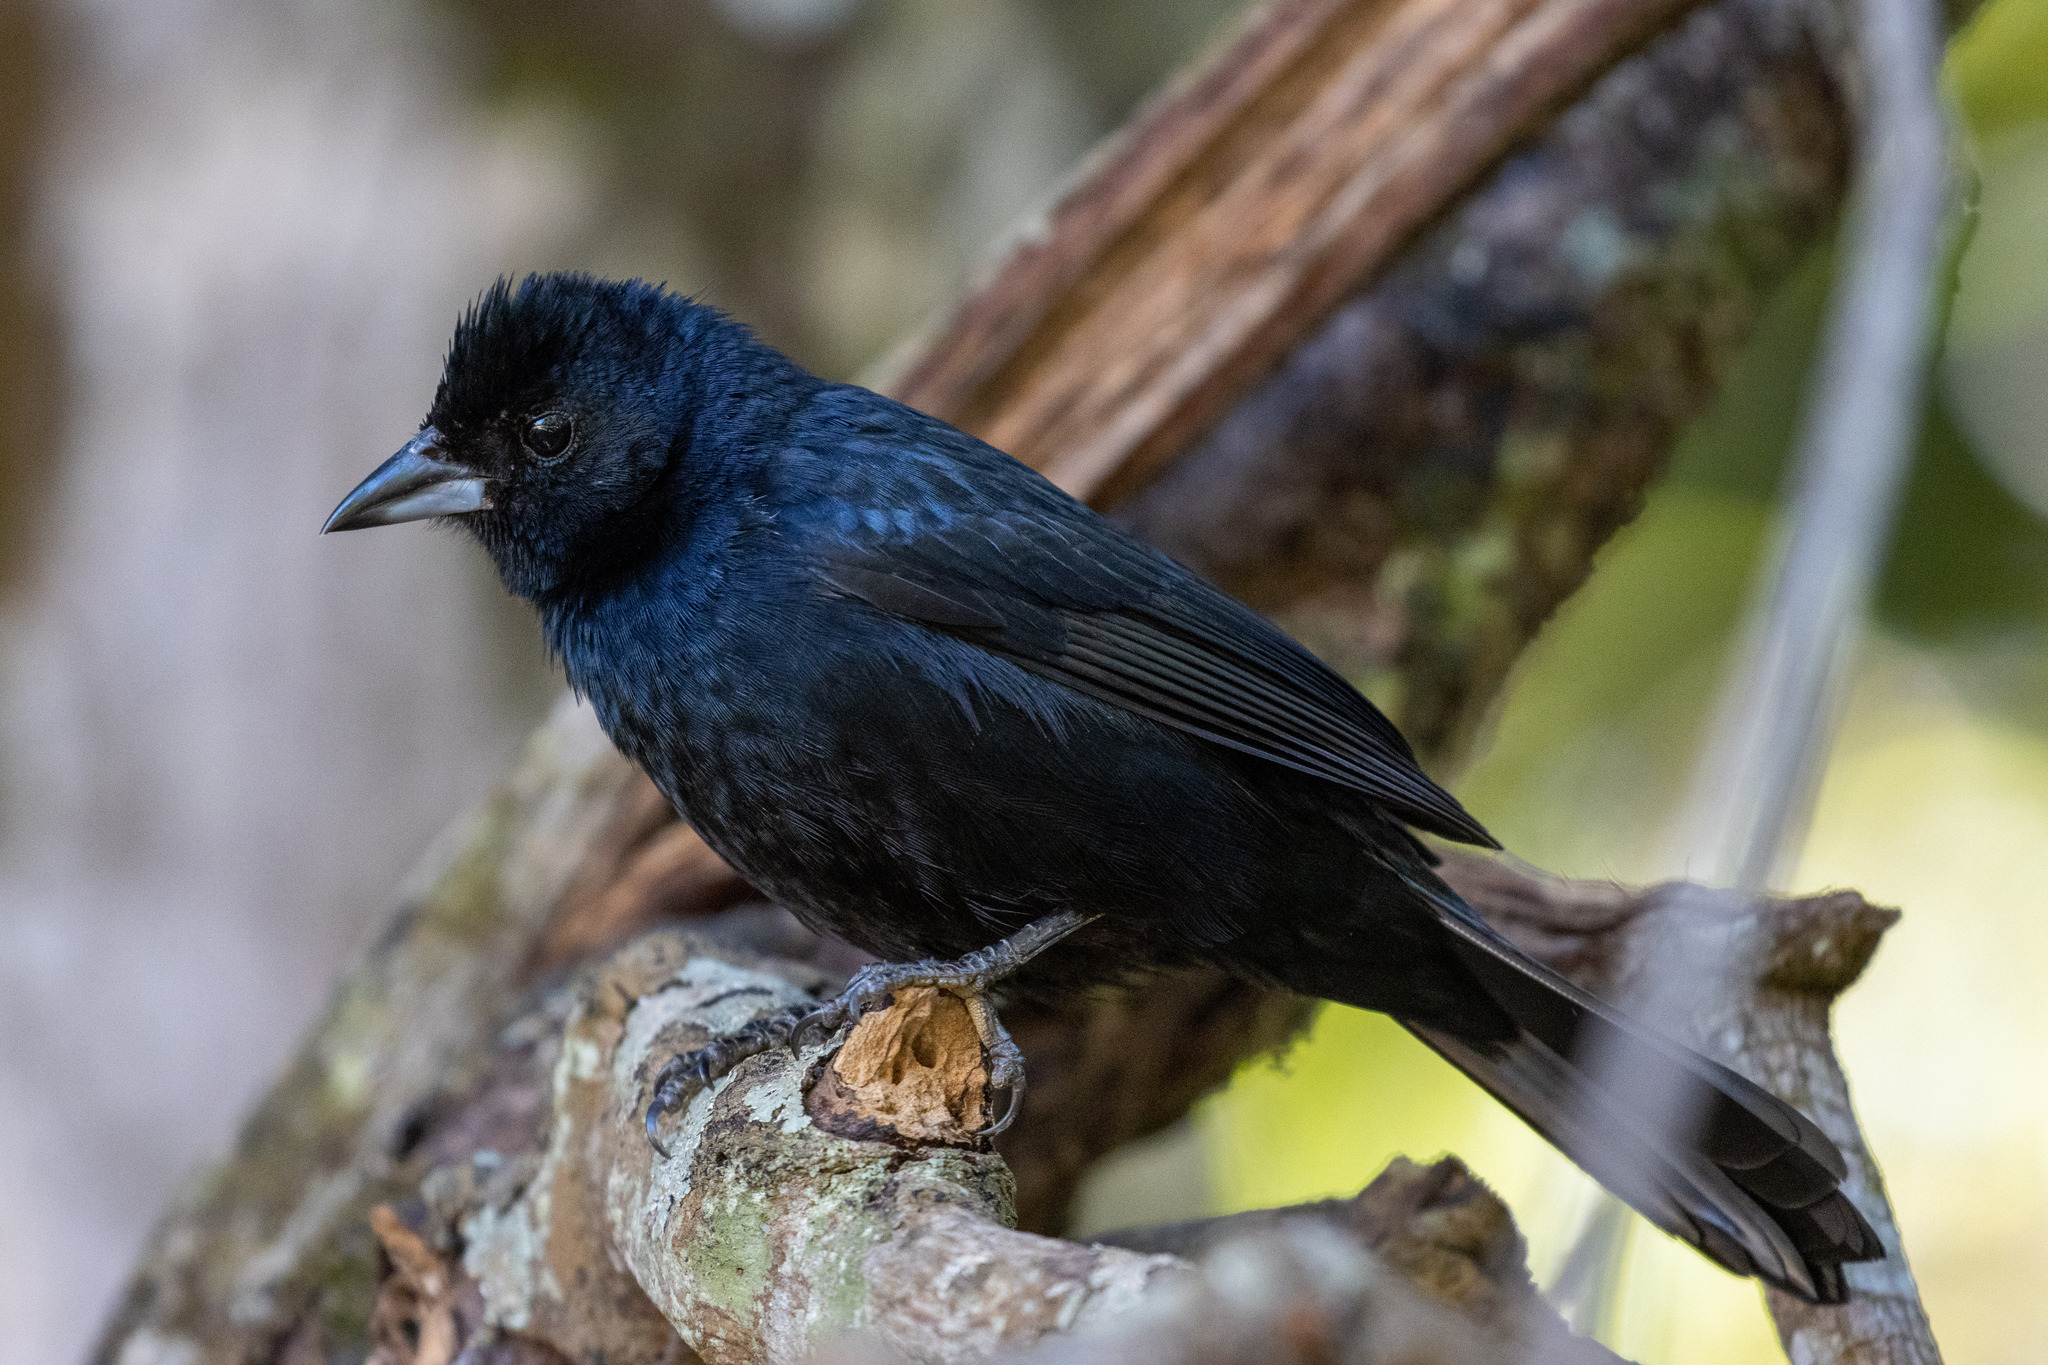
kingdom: Animalia
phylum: Chordata
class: Aves
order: Passeriformes
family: Thraupidae
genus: Tachyphonus
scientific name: Tachyphonus rufus
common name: White-lined tanager
